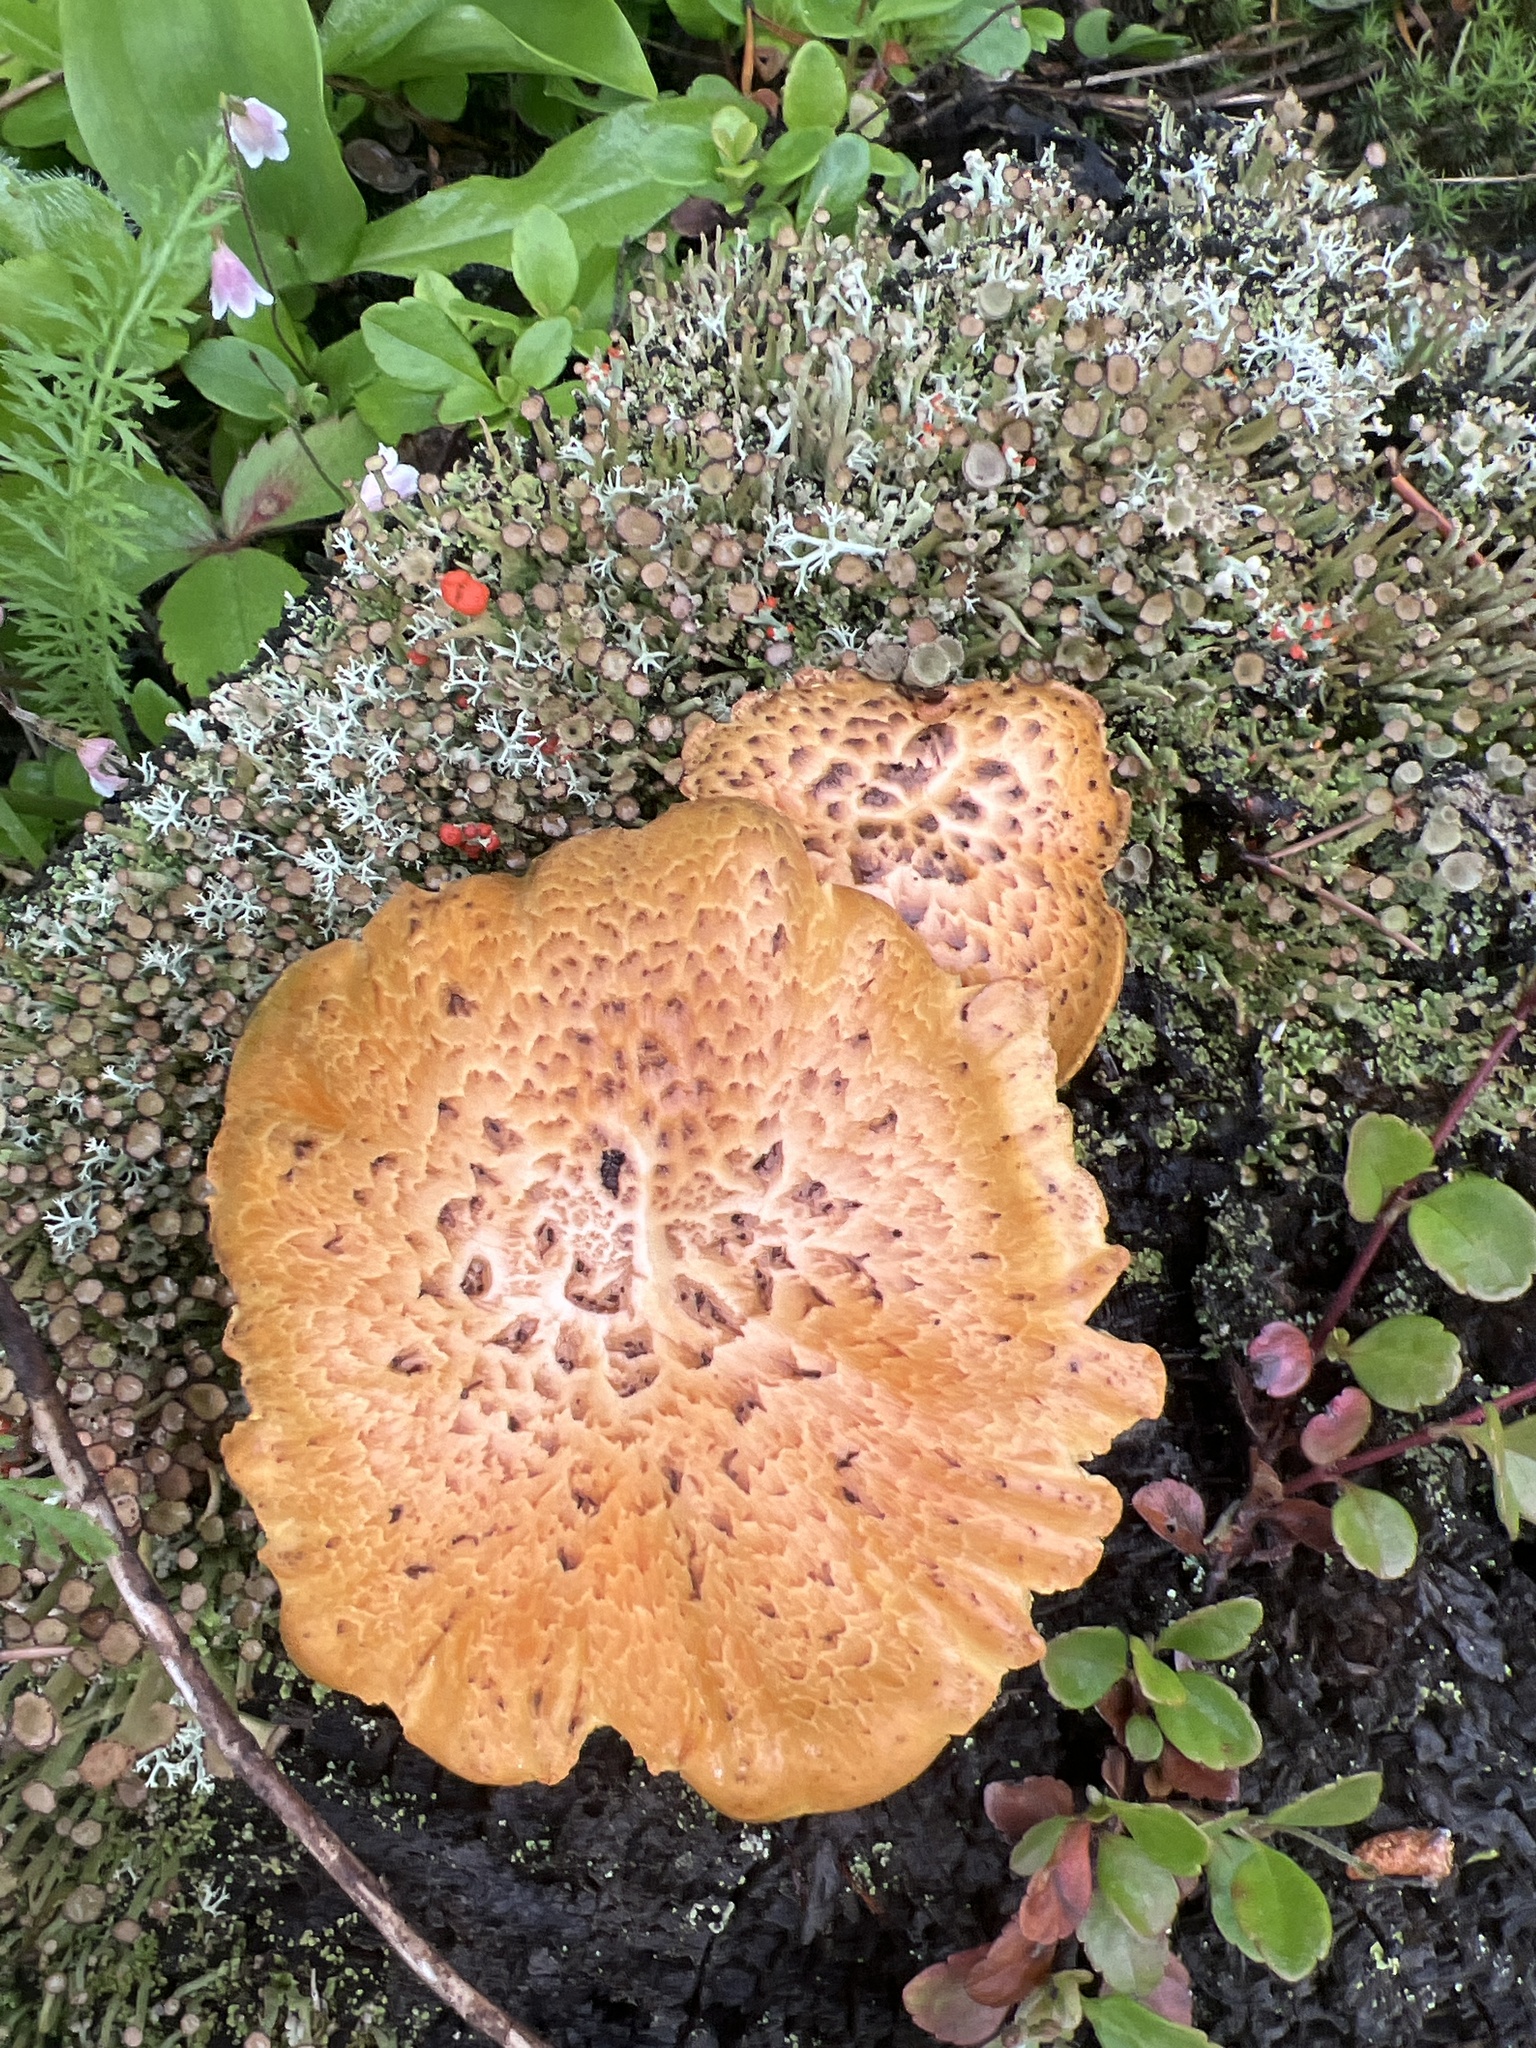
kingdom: Fungi
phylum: Basidiomycota
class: Agaricomycetes
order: Gloeophyllales
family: Gloeophyllaceae
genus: Neolentinus
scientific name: Neolentinus lepideus
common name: Scaly sawgill
